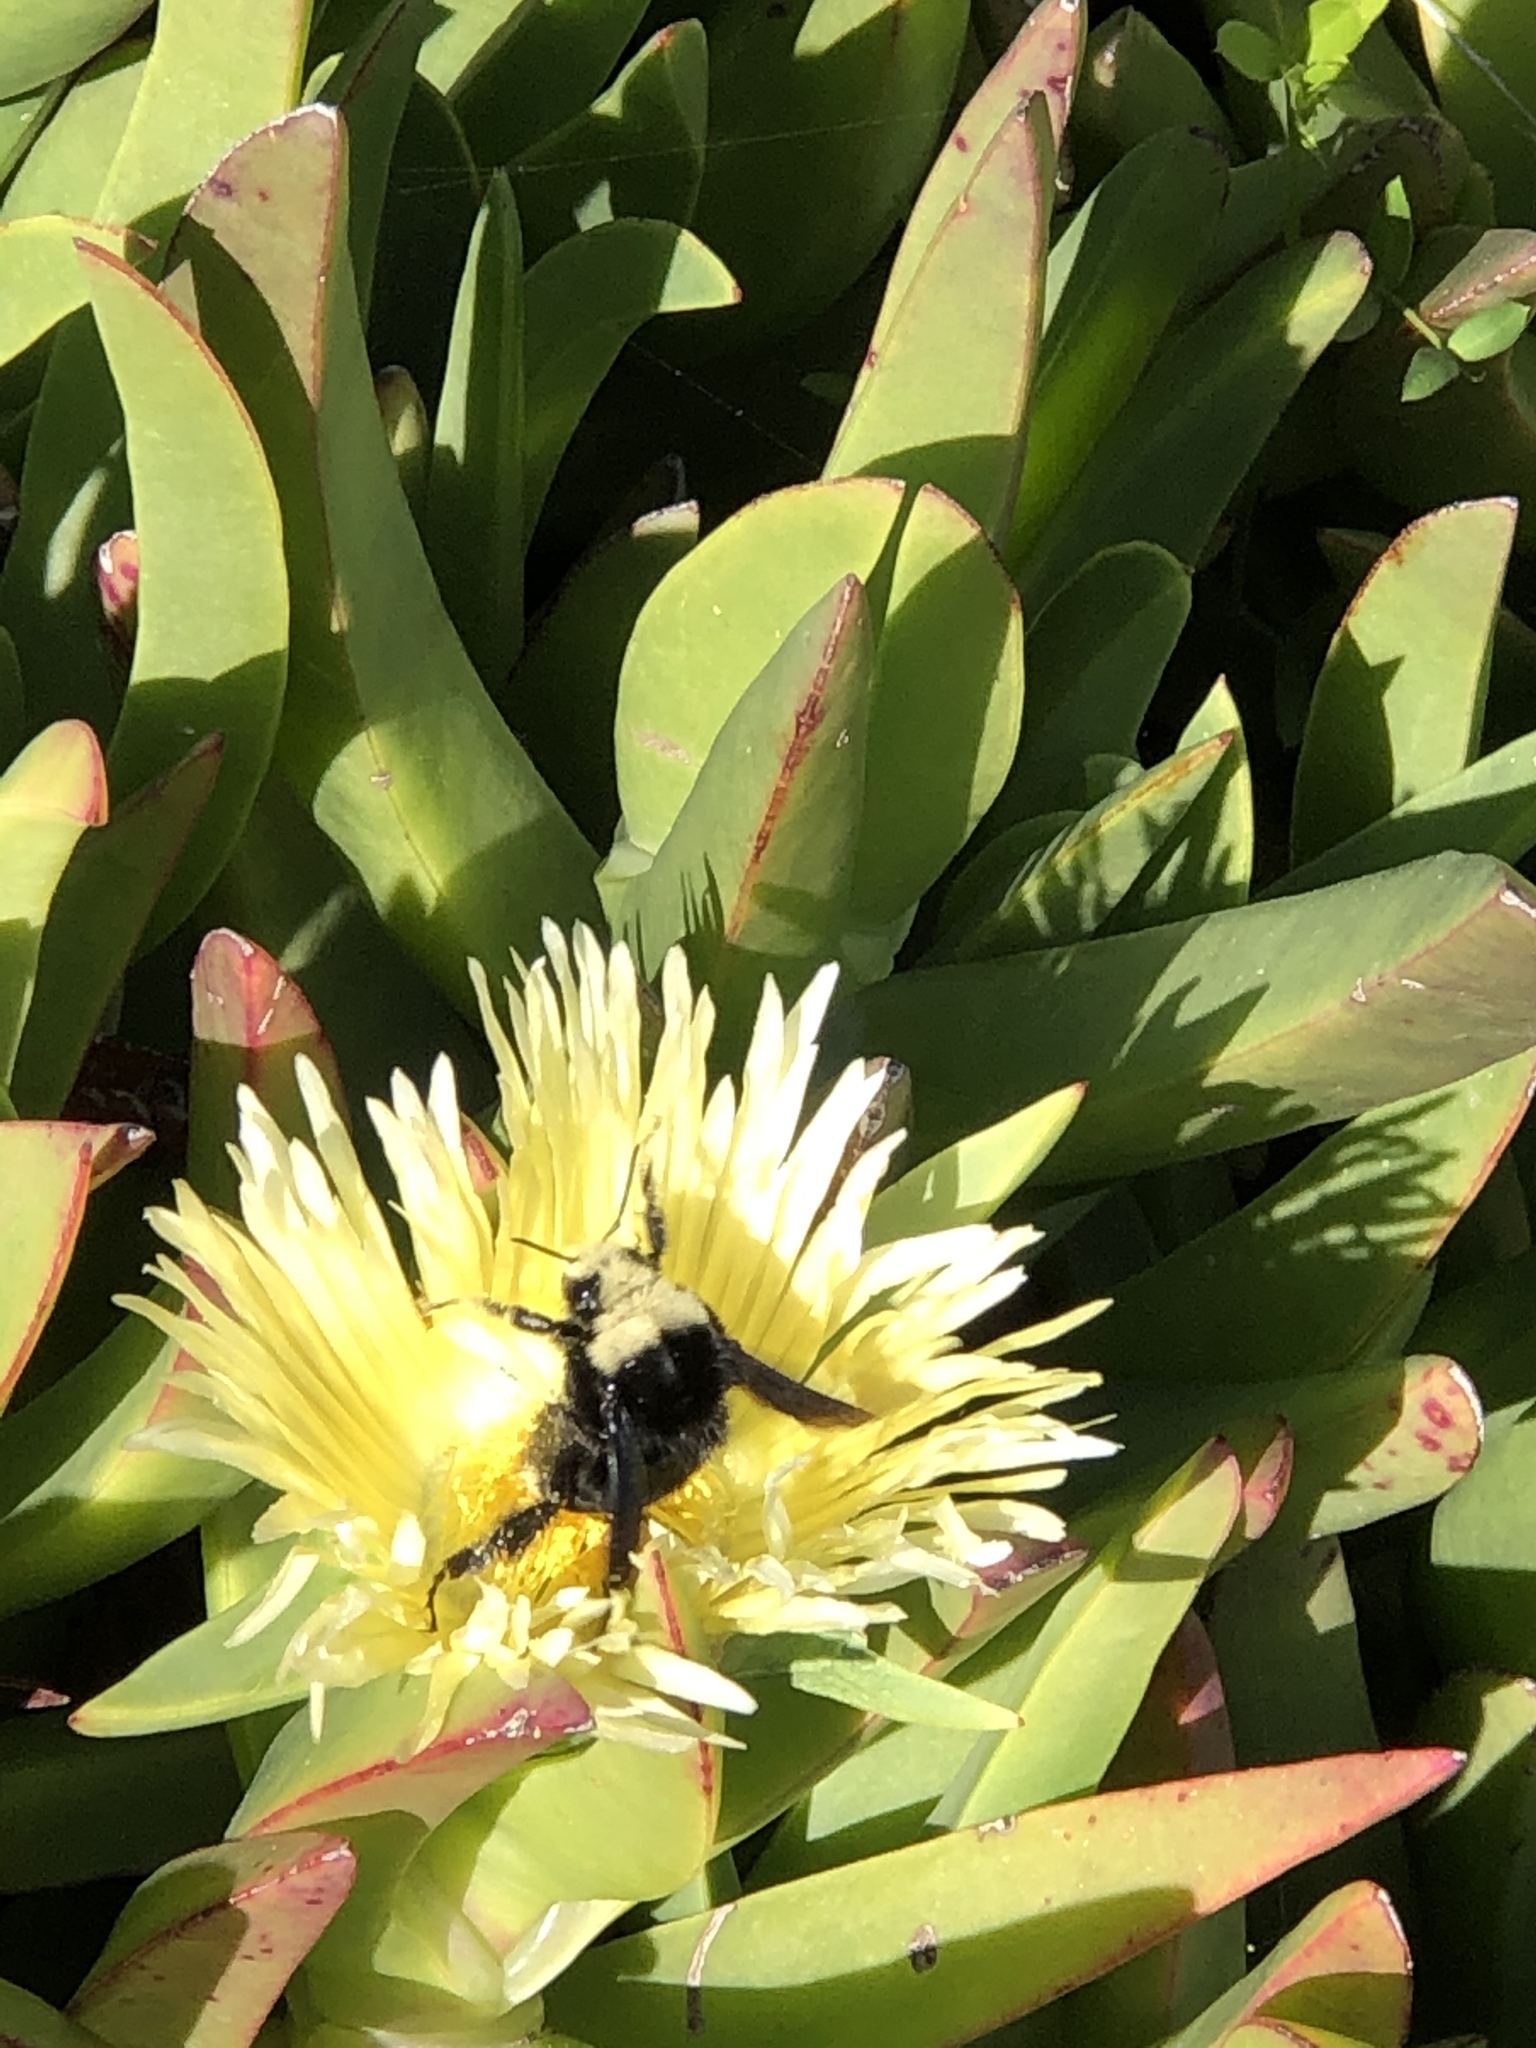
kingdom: Animalia
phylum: Arthropoda
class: Insecta
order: Hymenoptera
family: Apidae
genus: Bombus
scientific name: Bombus vosnesenskii
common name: Vosnesensky bumble bee
